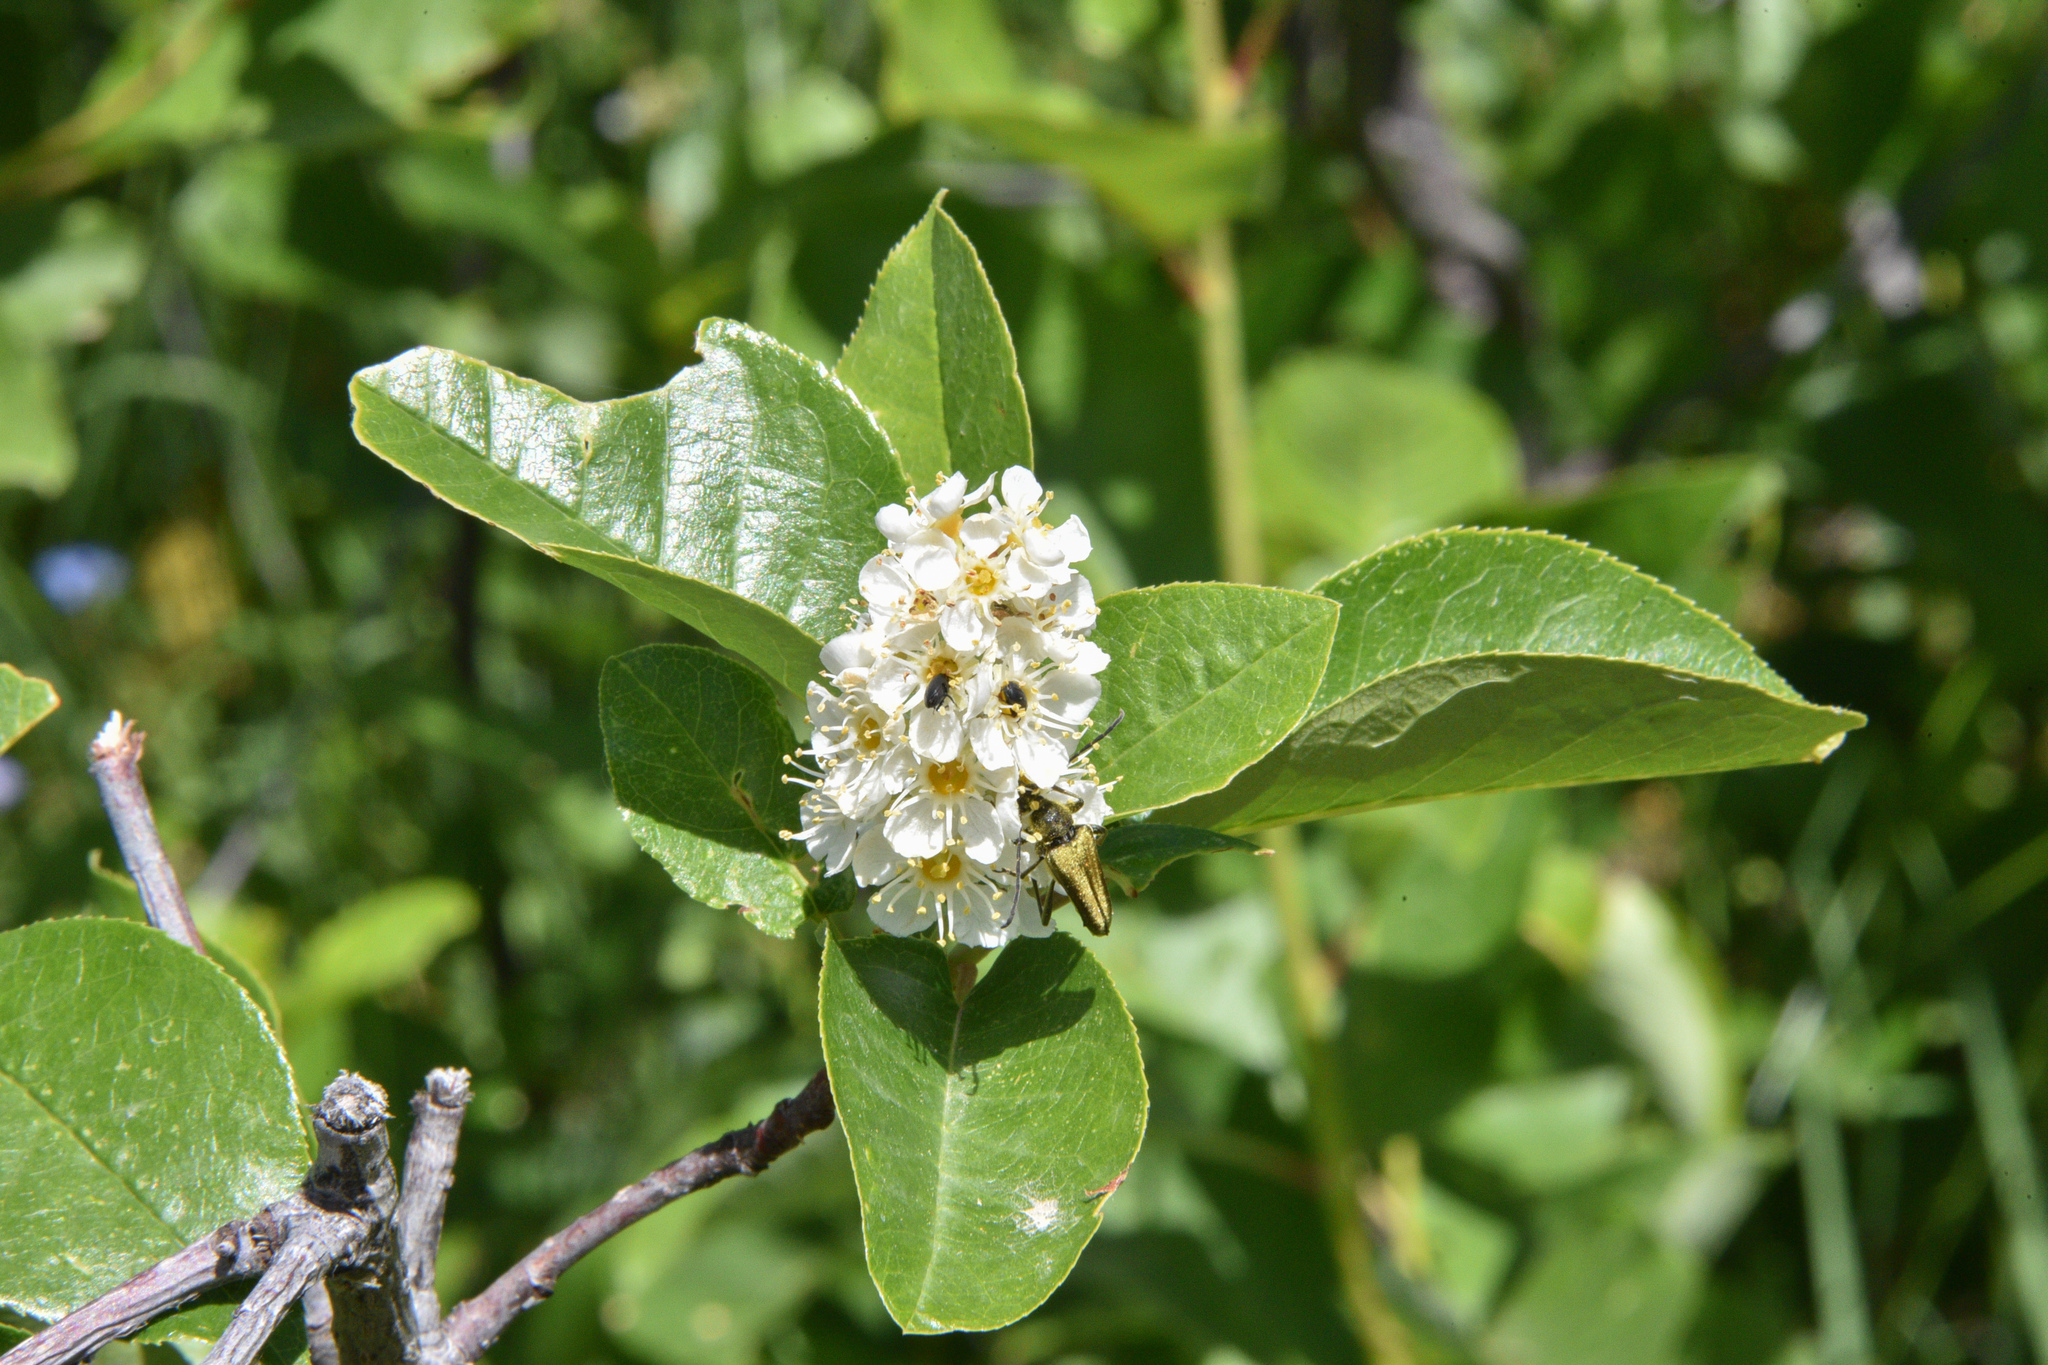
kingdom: Plantae
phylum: Tracheophyta
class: Magnoliopsida
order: Rosales
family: Rosaceae
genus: Prunus
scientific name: Prunus virginiana
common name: Chokecherry
